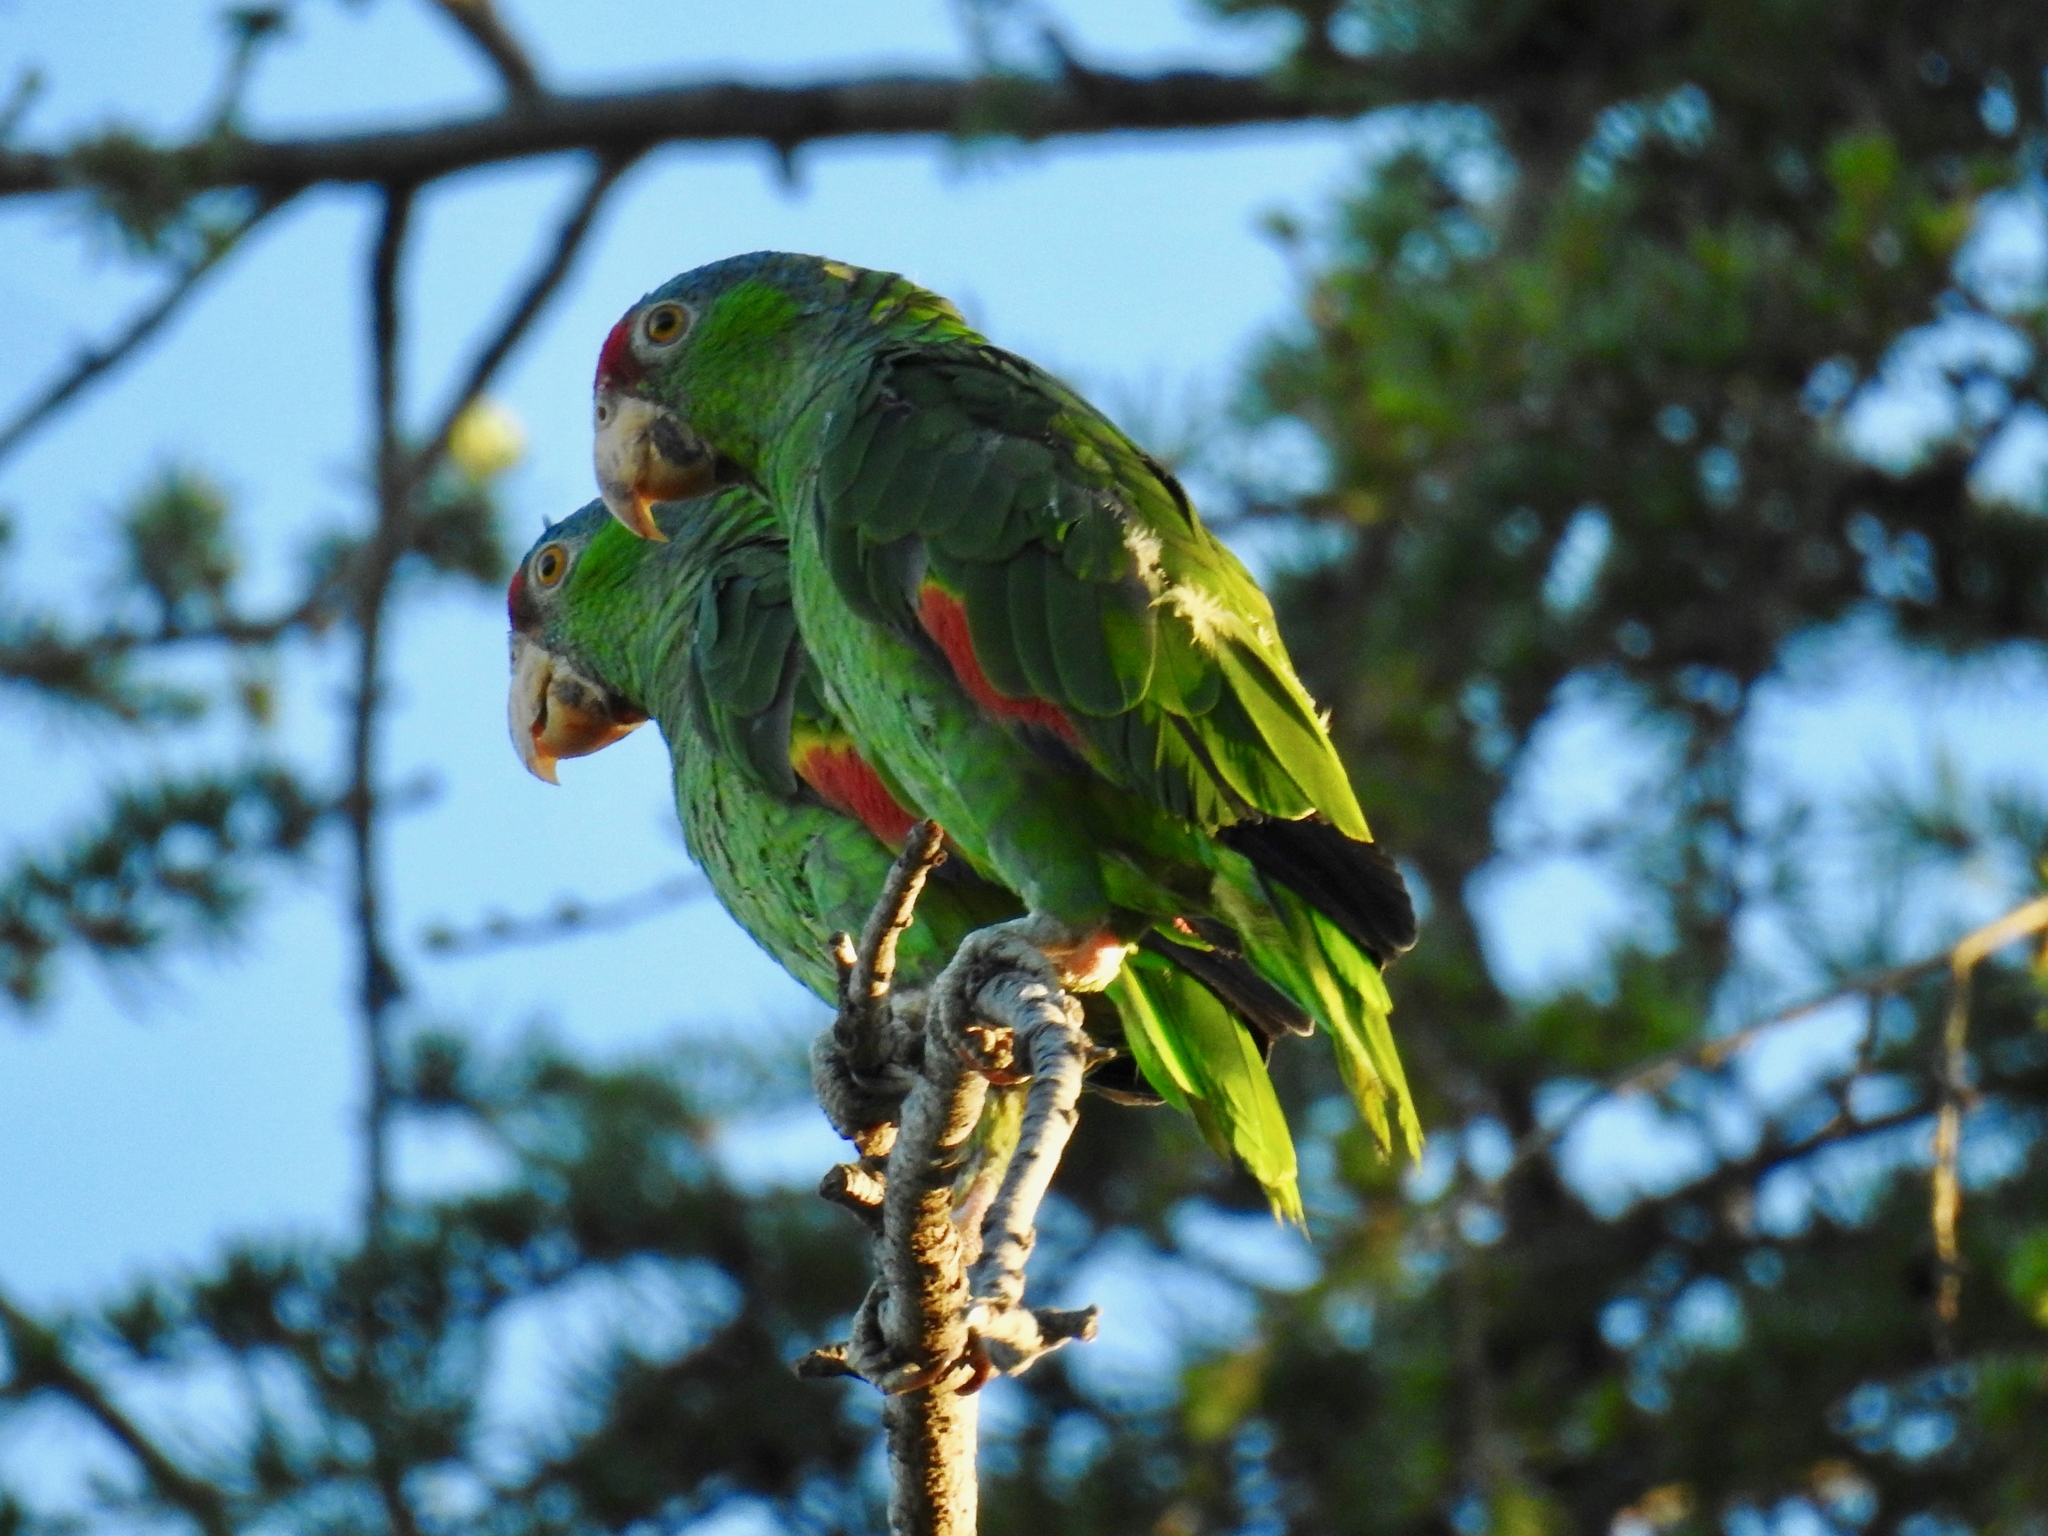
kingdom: Animalia
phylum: Chordata
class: Aves
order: Psittaciformes
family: Psittacidae
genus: Amazona
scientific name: Amazona viridigenalis
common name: Red-crowned amazon
